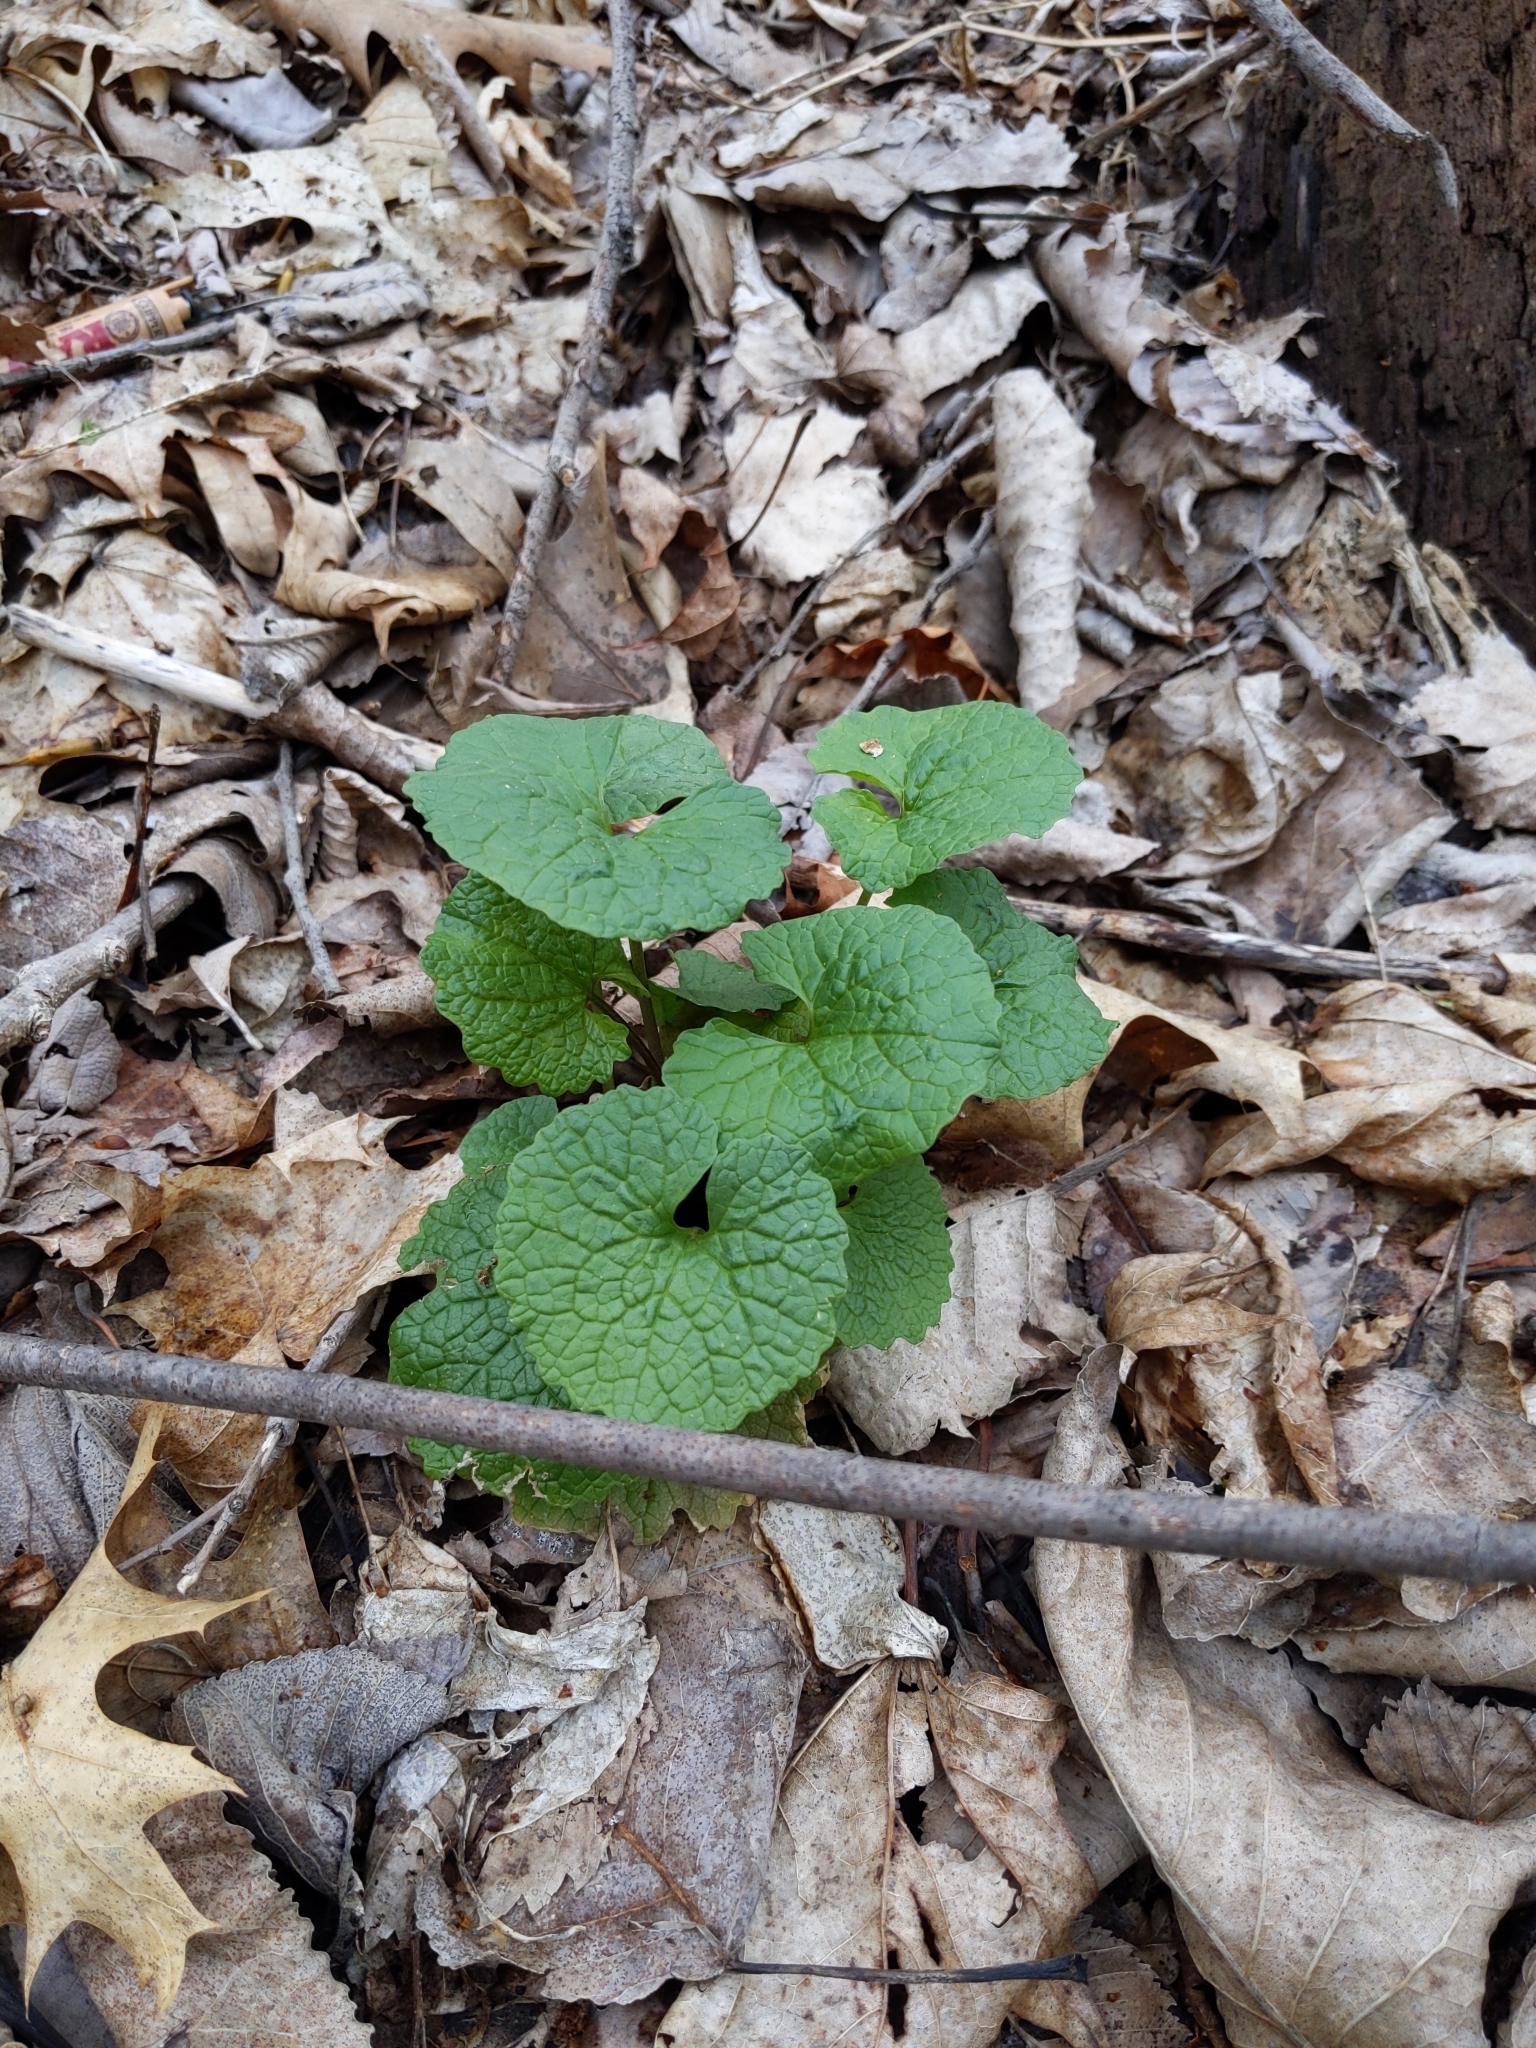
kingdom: Plantae
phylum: Tracheophyta
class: Magnoliopsida
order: Brassicales
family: Brassicaceae
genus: Alliaria
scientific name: Alliaria petiolata
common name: Garlic mustard
